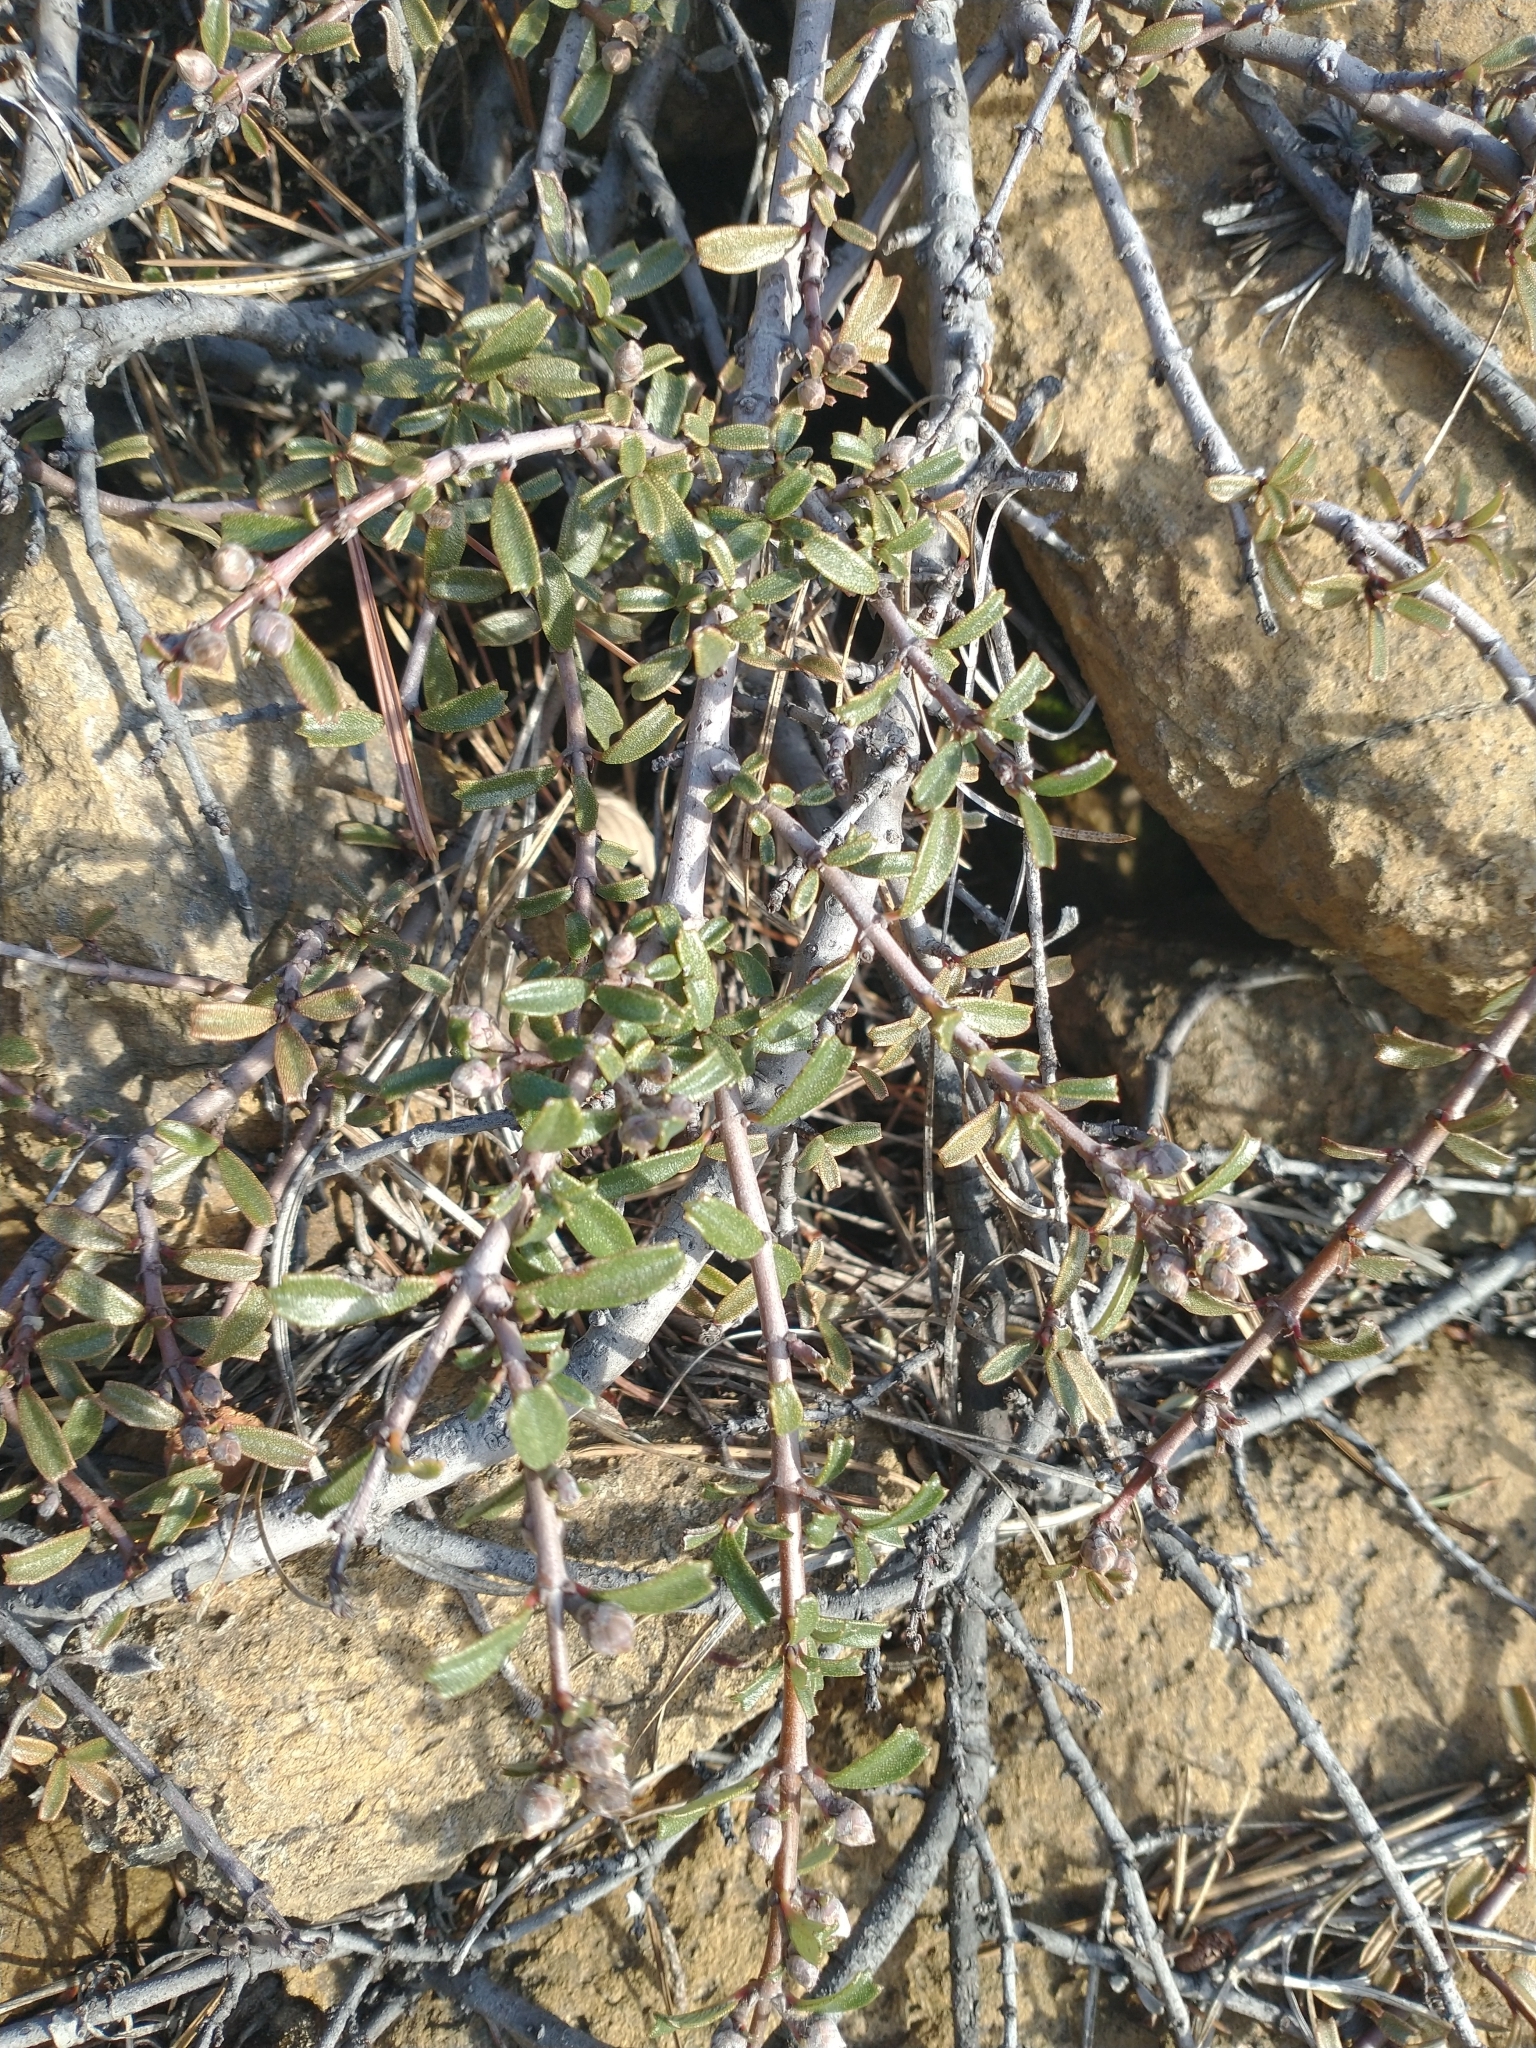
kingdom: Plantae
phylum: Tracheophyta
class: Magnoliopsida
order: Rosales
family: Rhamnaceae
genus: Ceanothus
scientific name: Ceanothus pumilus
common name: Siskiyou-mat
